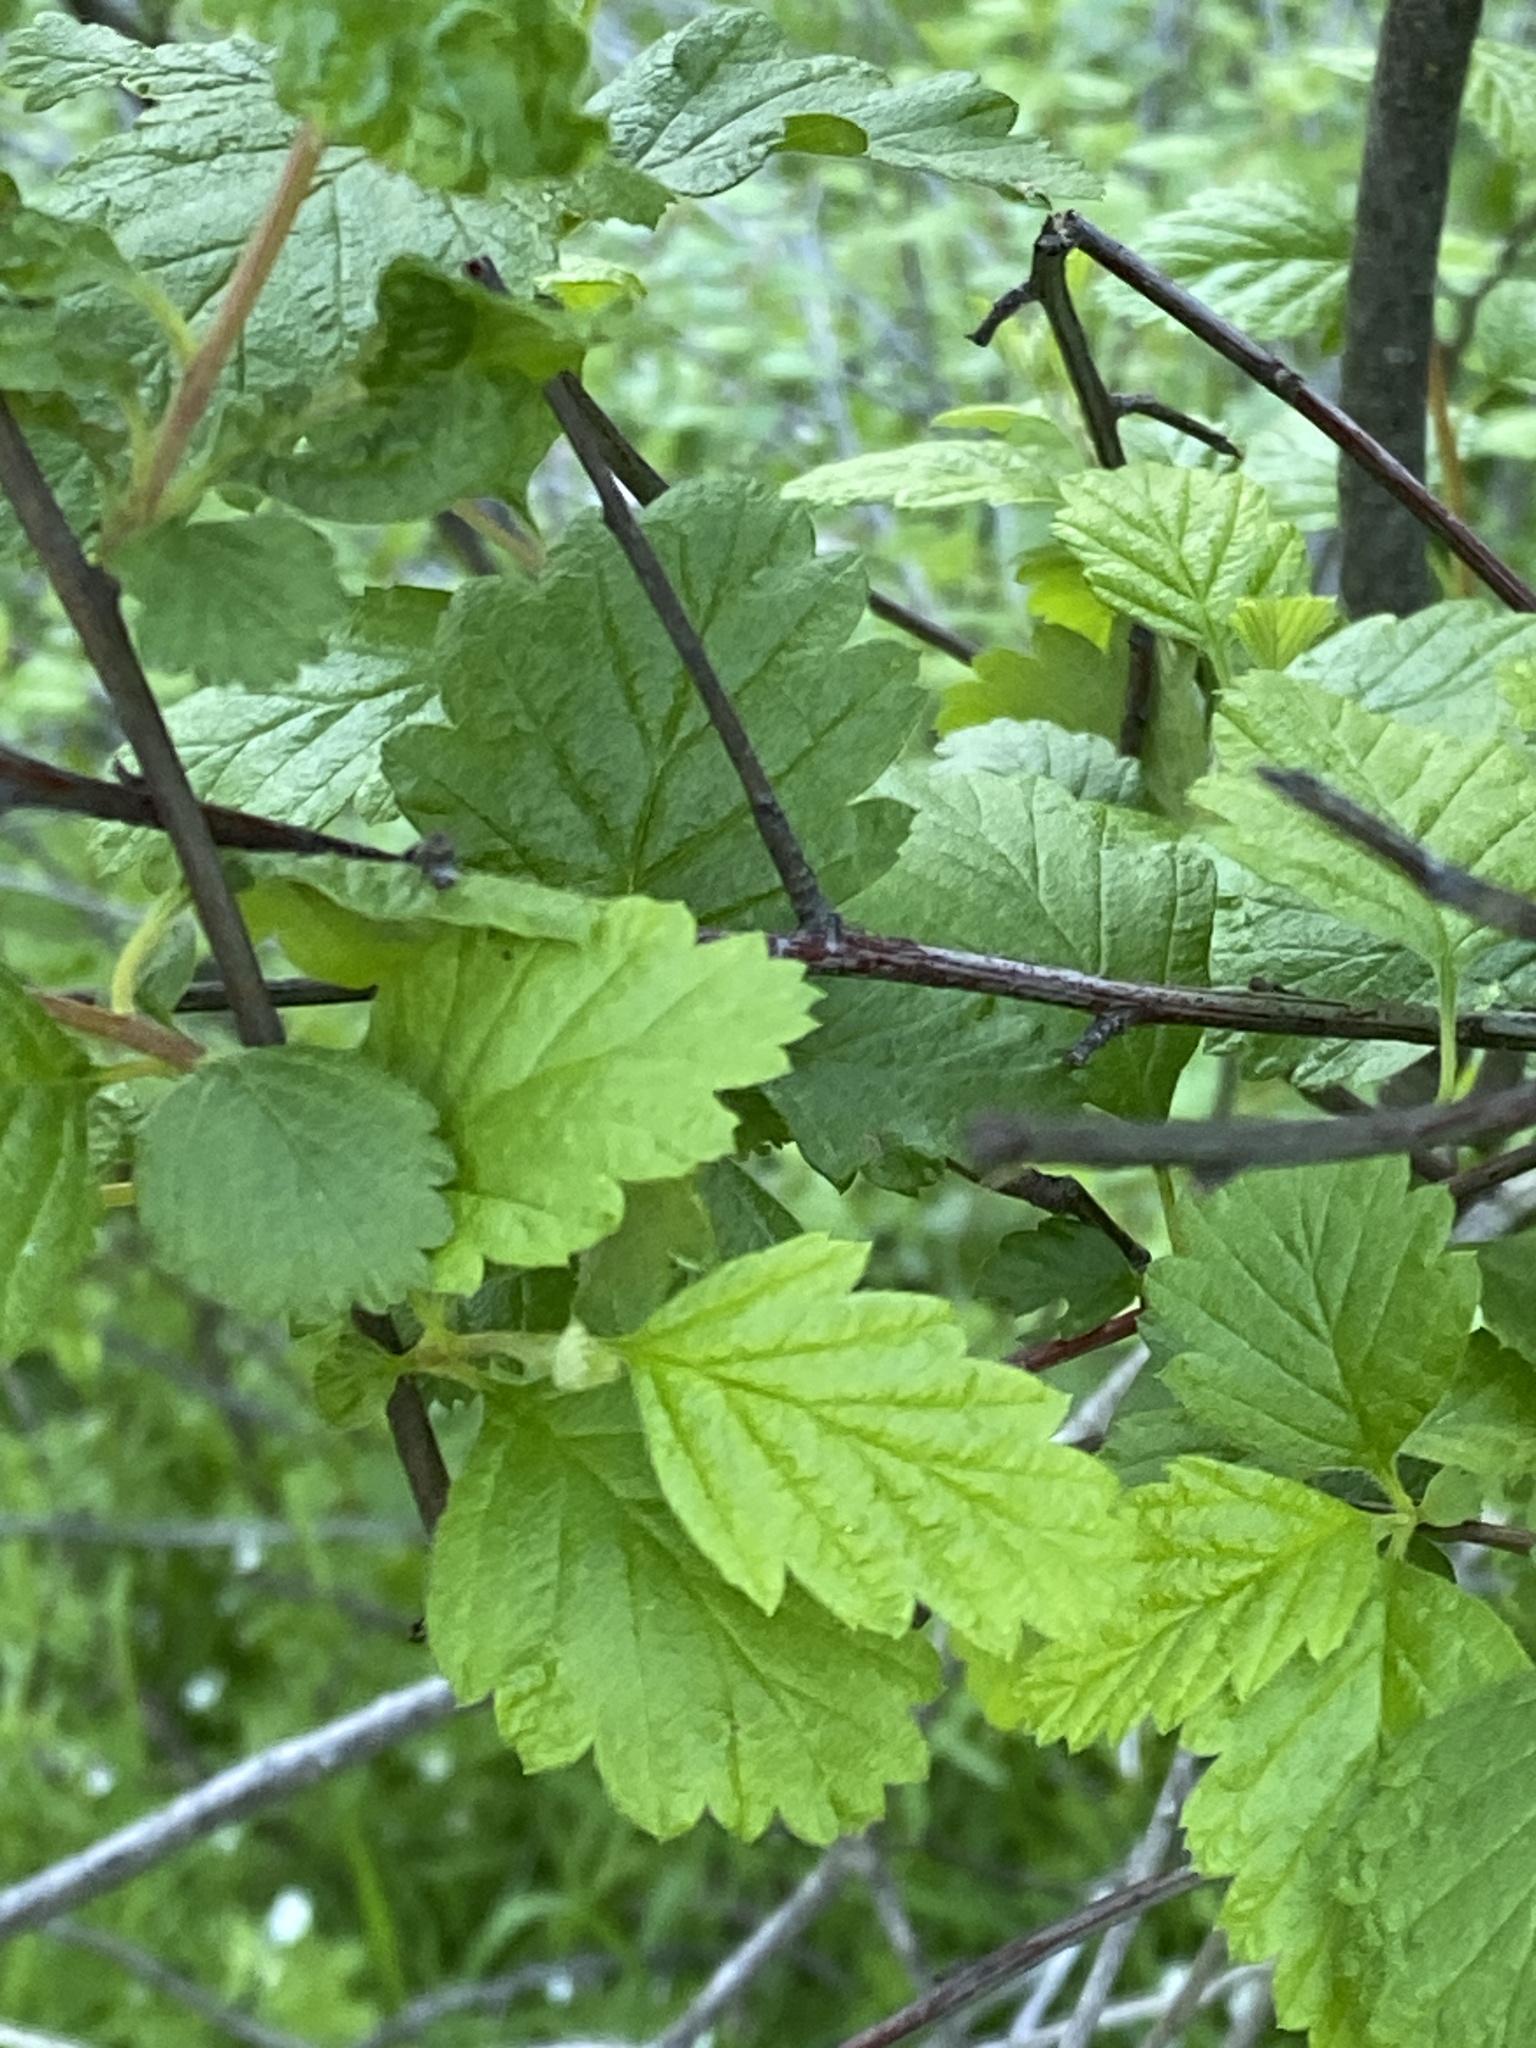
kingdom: Plantae
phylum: Tracheophyta
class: Magnoliopsida
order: Rosales
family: Rosaceae
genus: Holodiscus
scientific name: Holodiscus discolor
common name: Oceanspray
